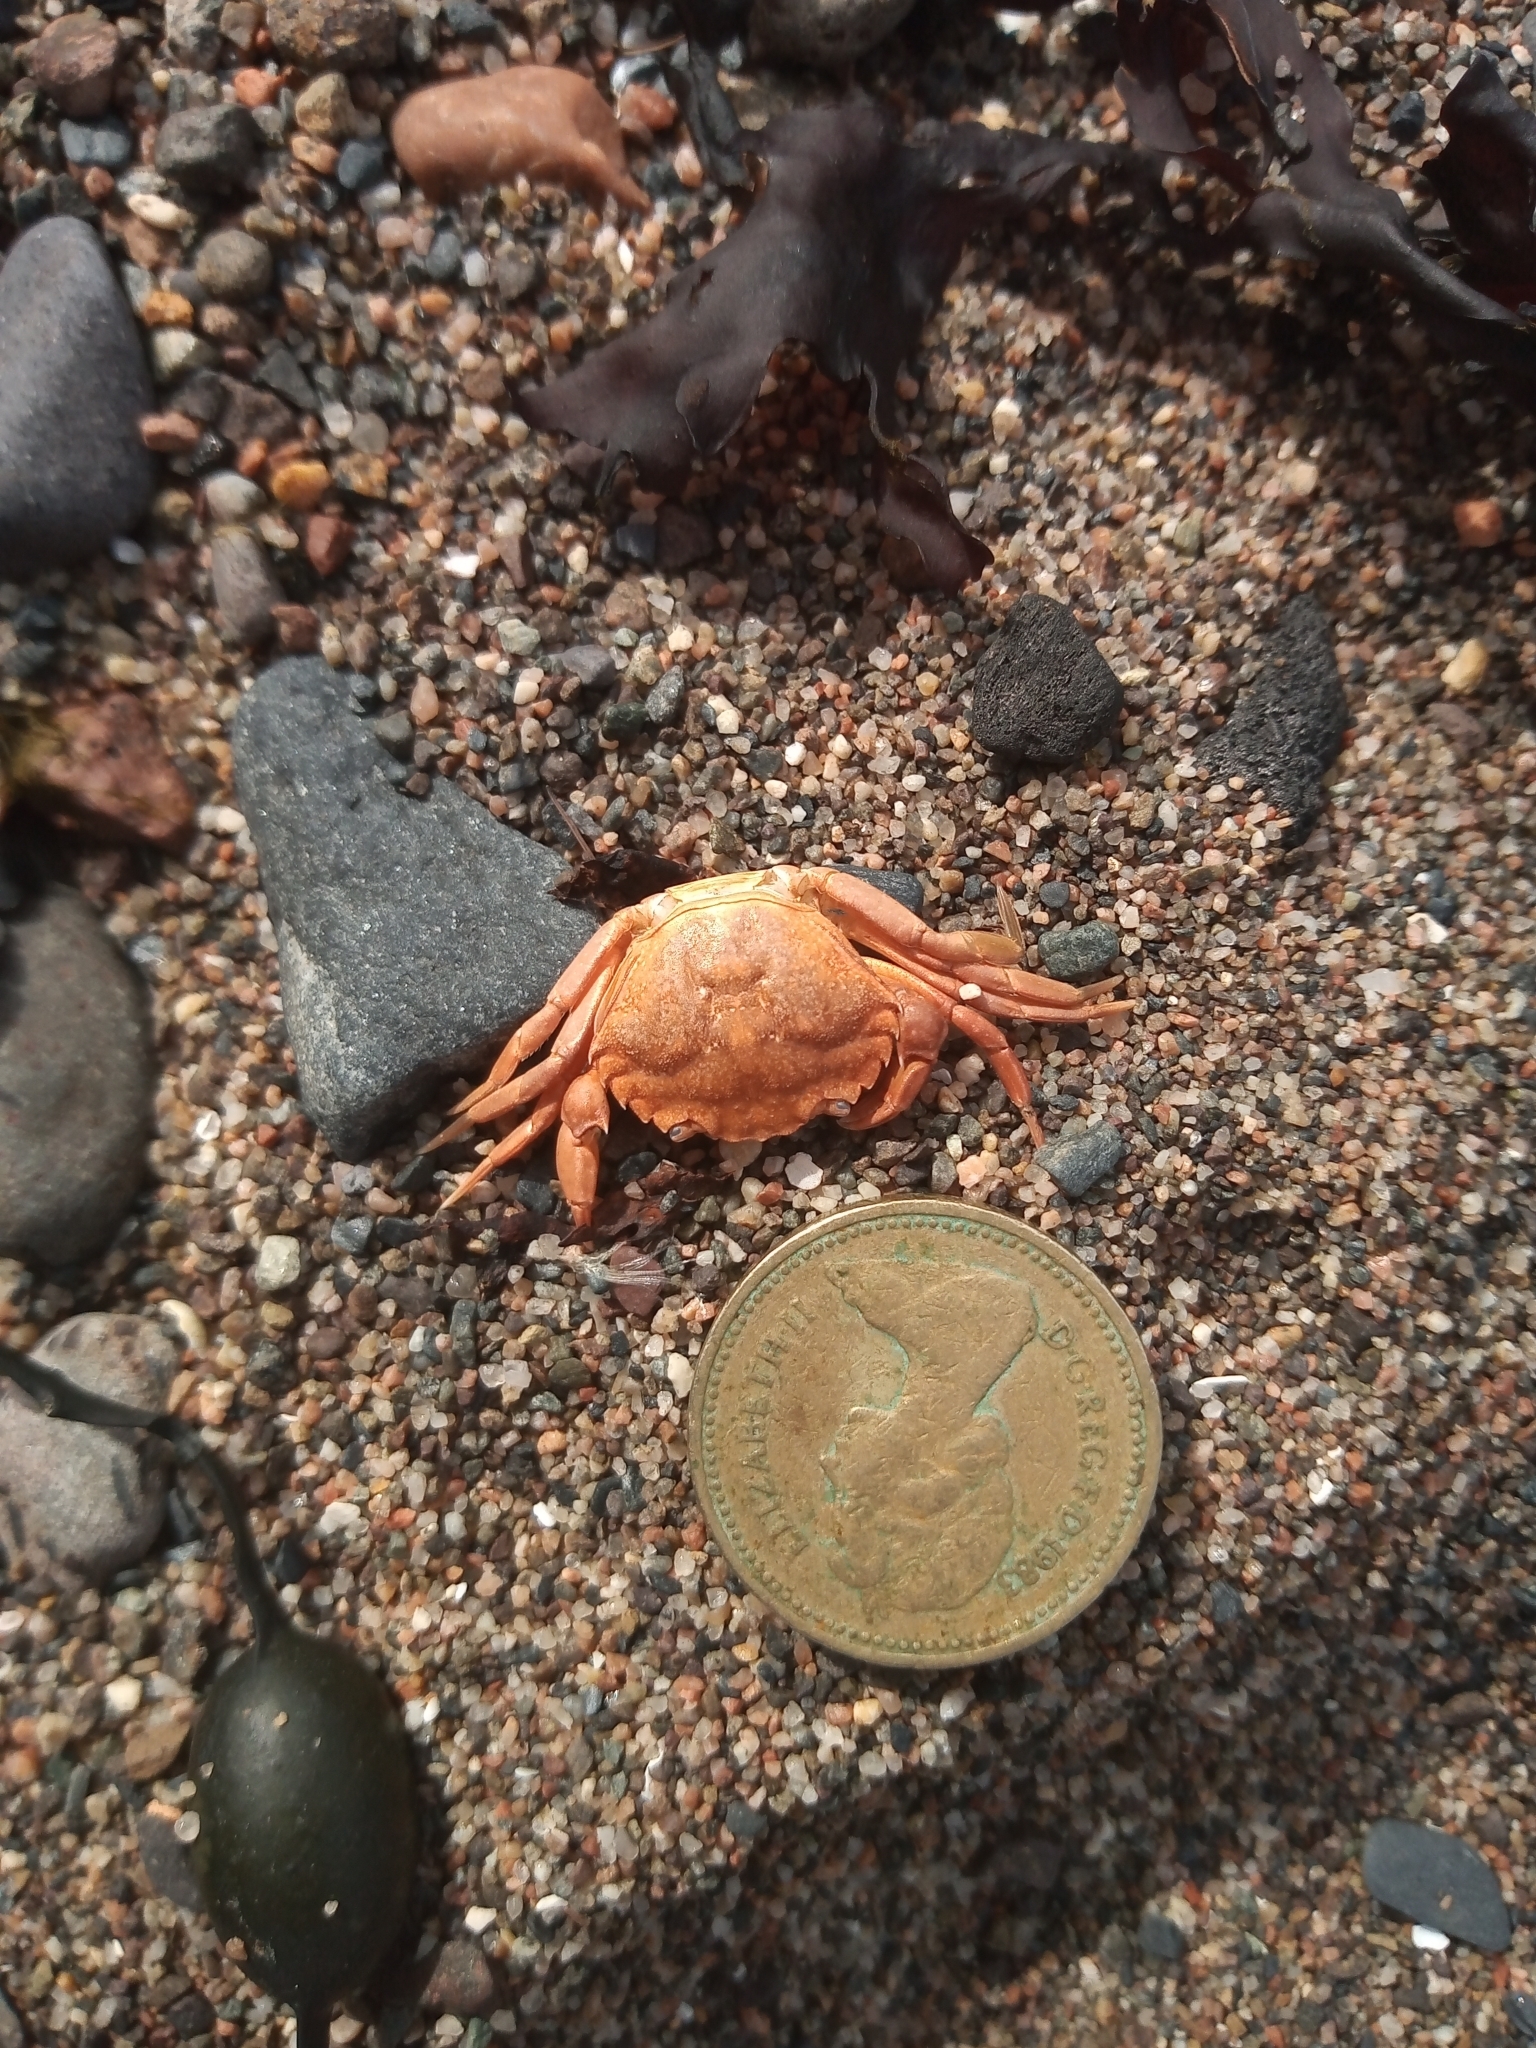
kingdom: Animalia
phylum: Arthropoda
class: Malacostraca
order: Decapoda
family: Carcinidae
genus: Carcinus
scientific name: Carcinus maenas
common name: European green crab
